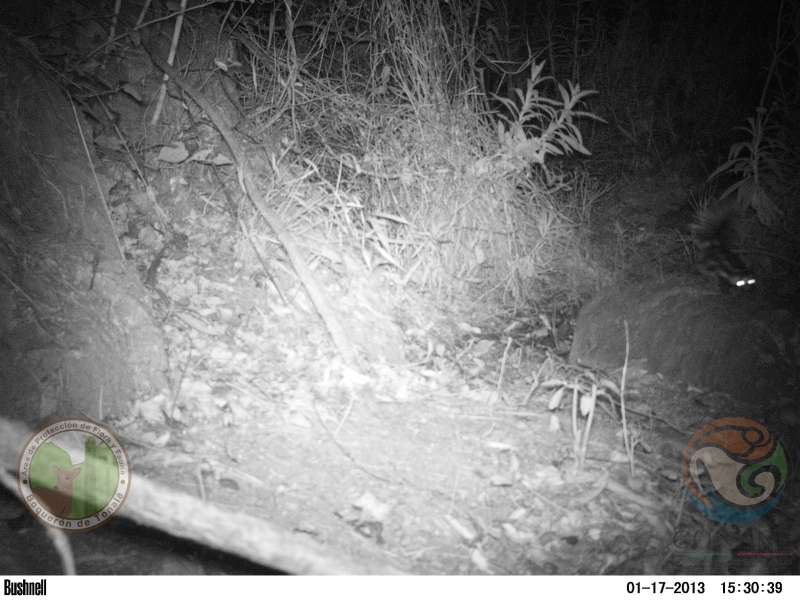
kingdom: Animalia
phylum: Chordata
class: Mammalia
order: Carnivora
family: Mephitidae
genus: Spilogale
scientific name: Spilogale angustifrons
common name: Southern spotted skunk
